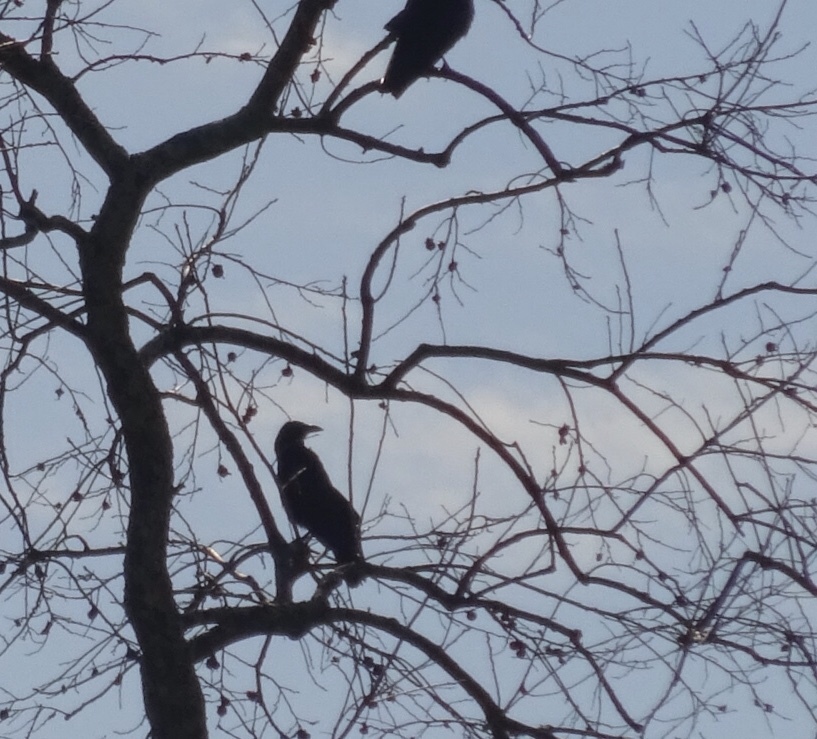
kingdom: Animalia
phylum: Chordata
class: Aves
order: Passeriformes
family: Corvidae
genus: Corvus
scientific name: Corvus brachyrhynchos
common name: American crow
